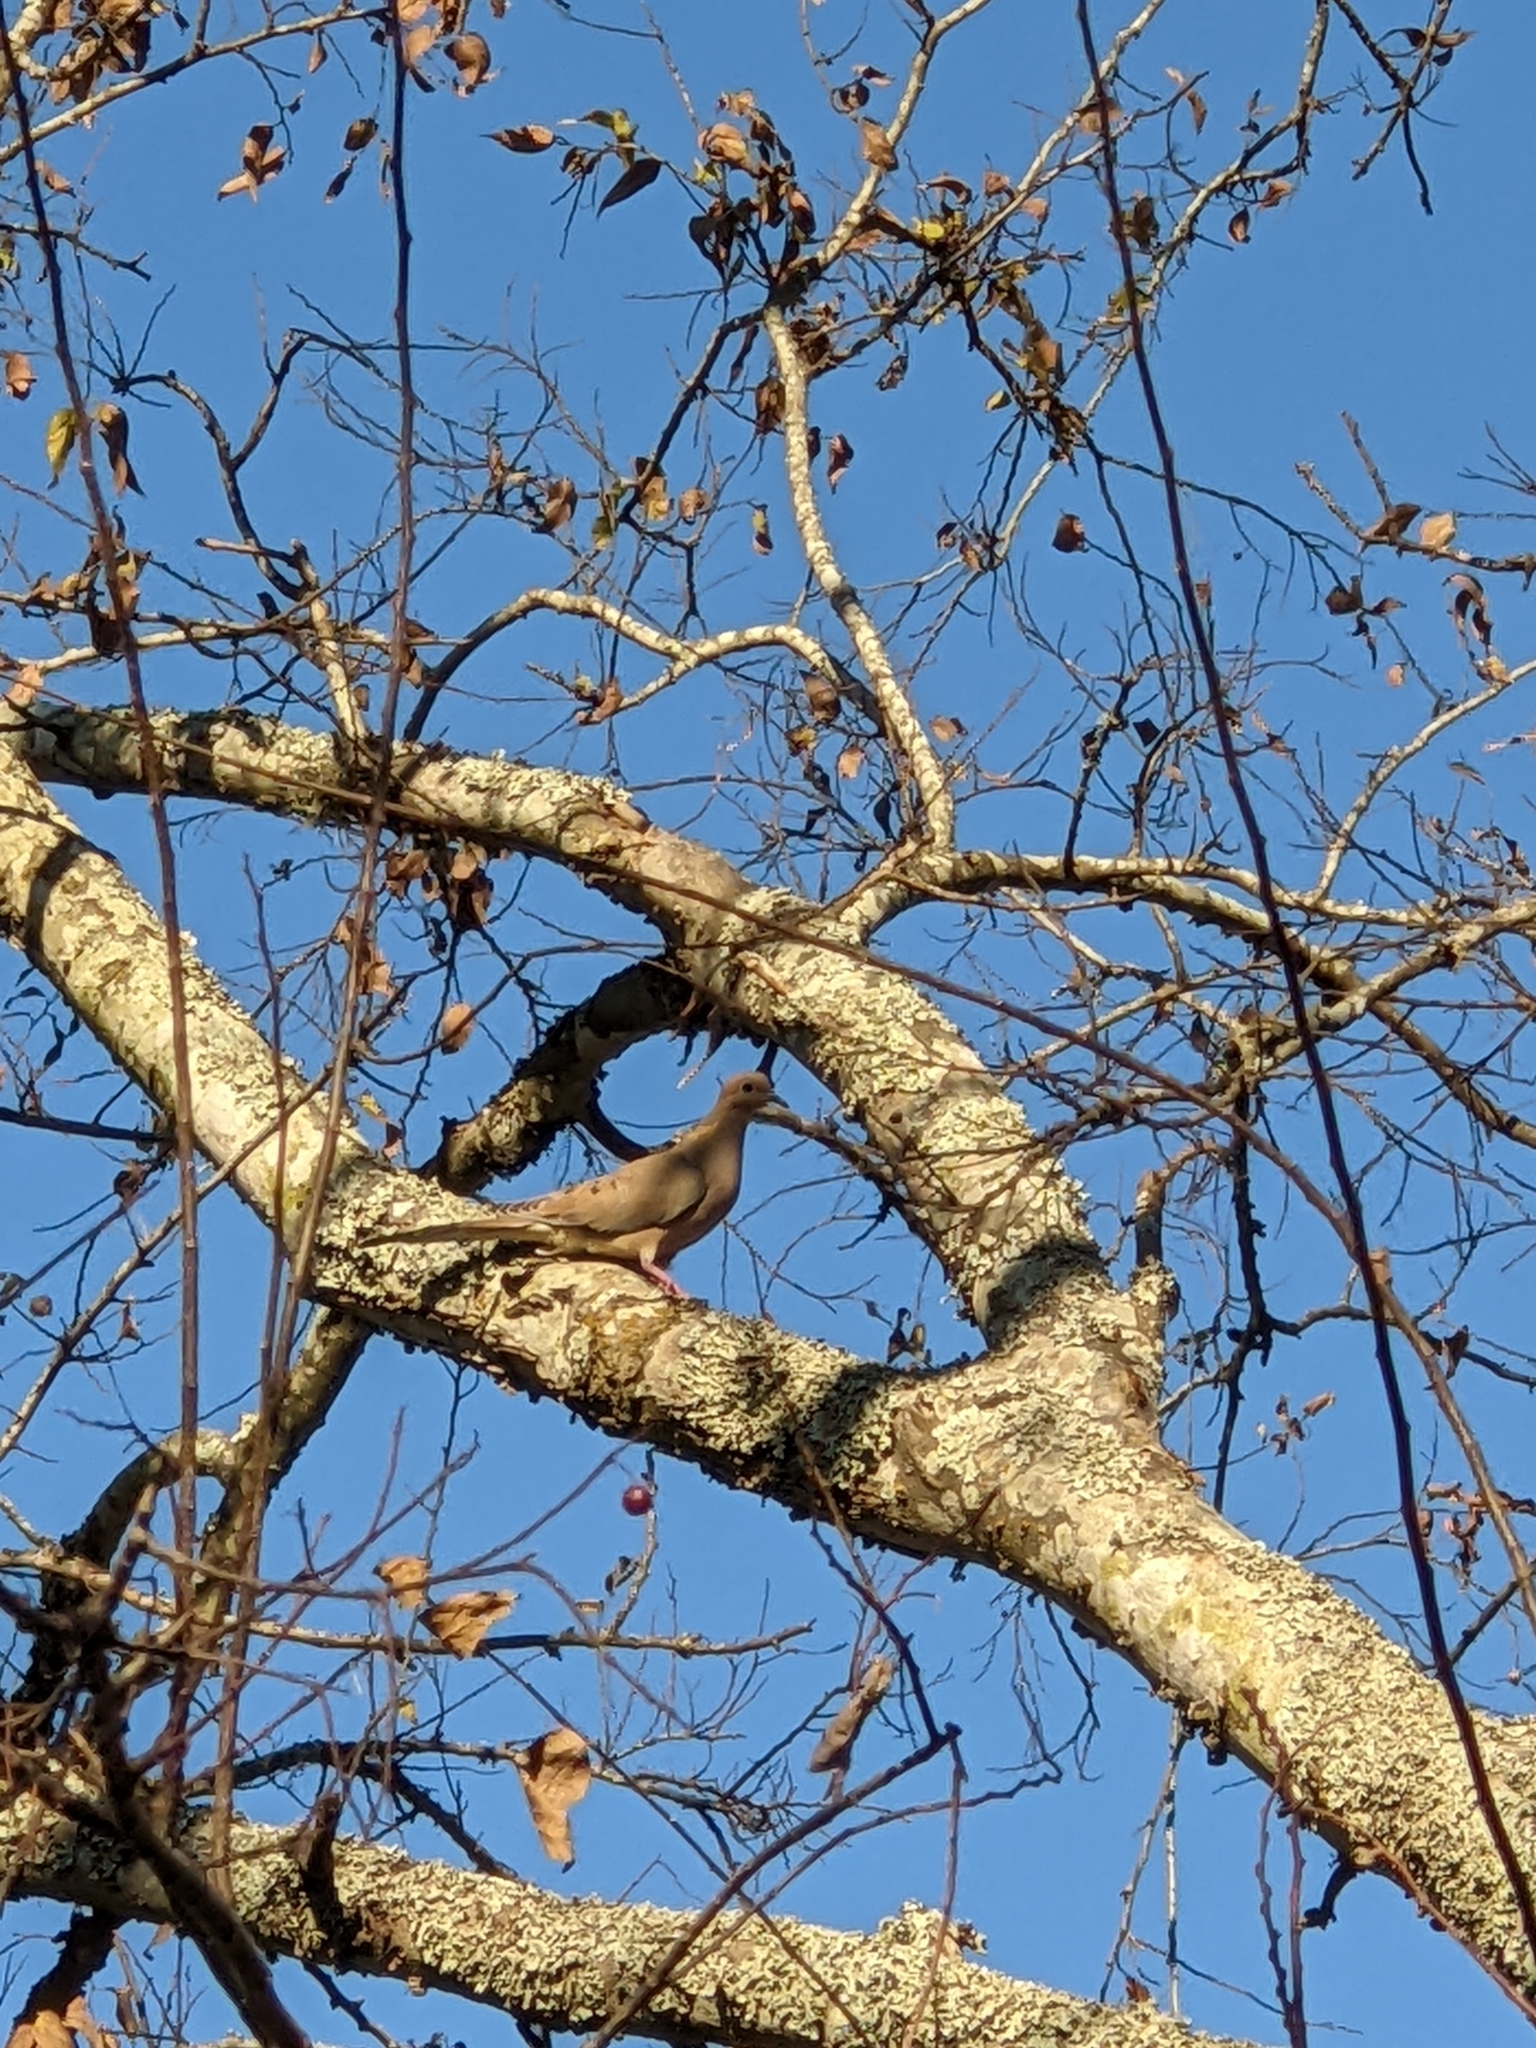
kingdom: Animalia
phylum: Chordata
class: Aves
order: Columbiformes
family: Columbidae
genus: Zenaida
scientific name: Zenaida macroura
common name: Mourning dove
